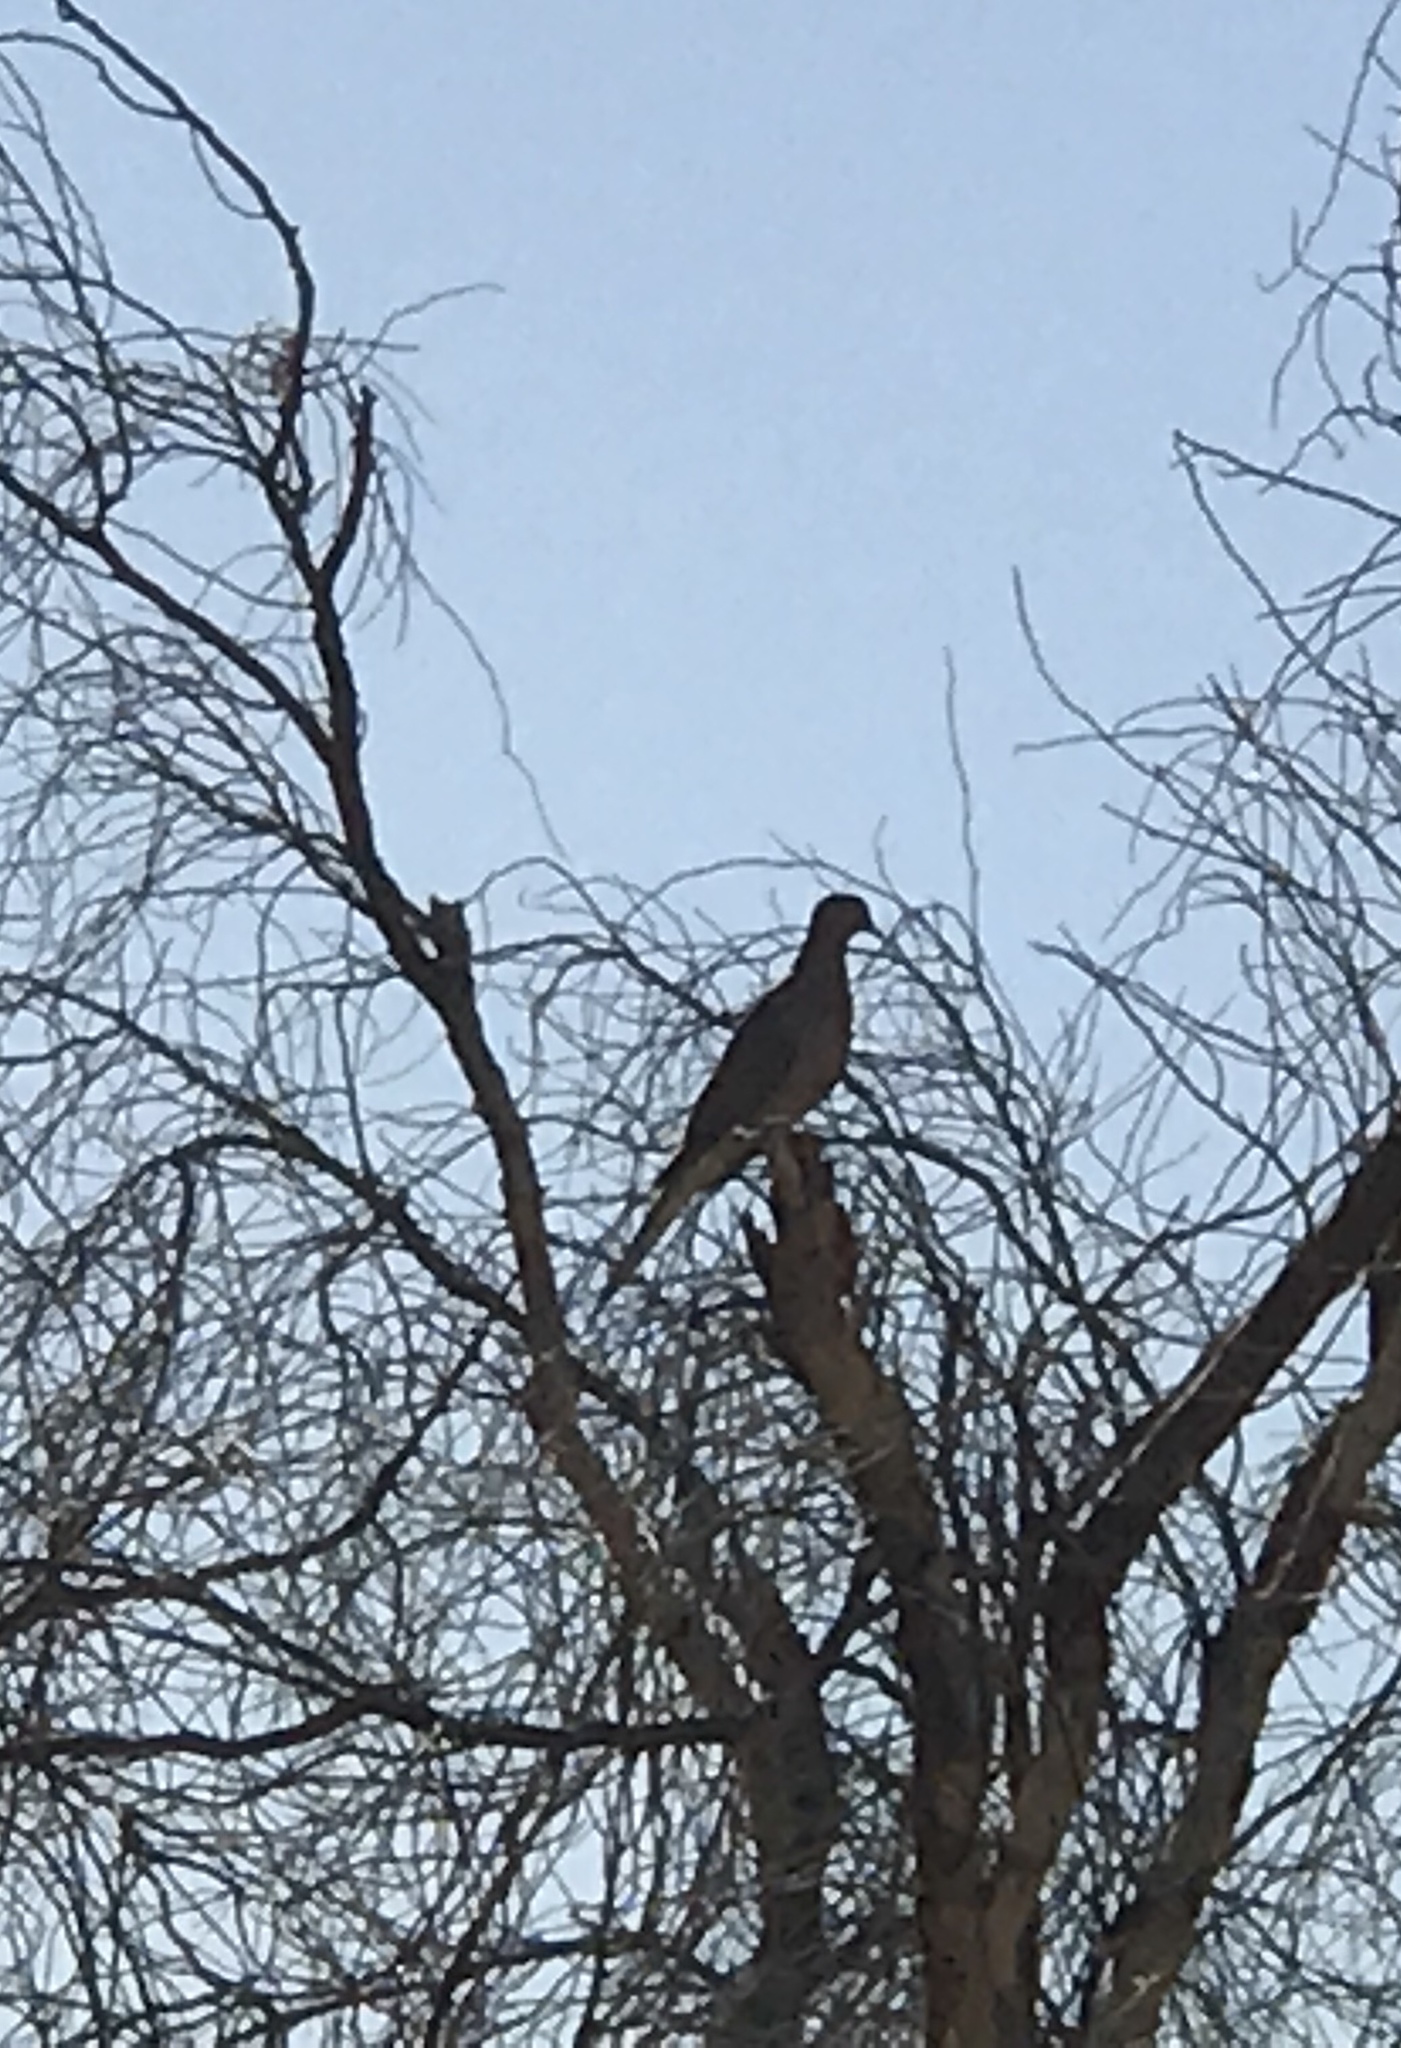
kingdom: Animalia
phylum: Chordata
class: Aves
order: Columbiformes
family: Columbidae
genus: Zenaida
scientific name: Zenaida macroura
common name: Mourning dove
